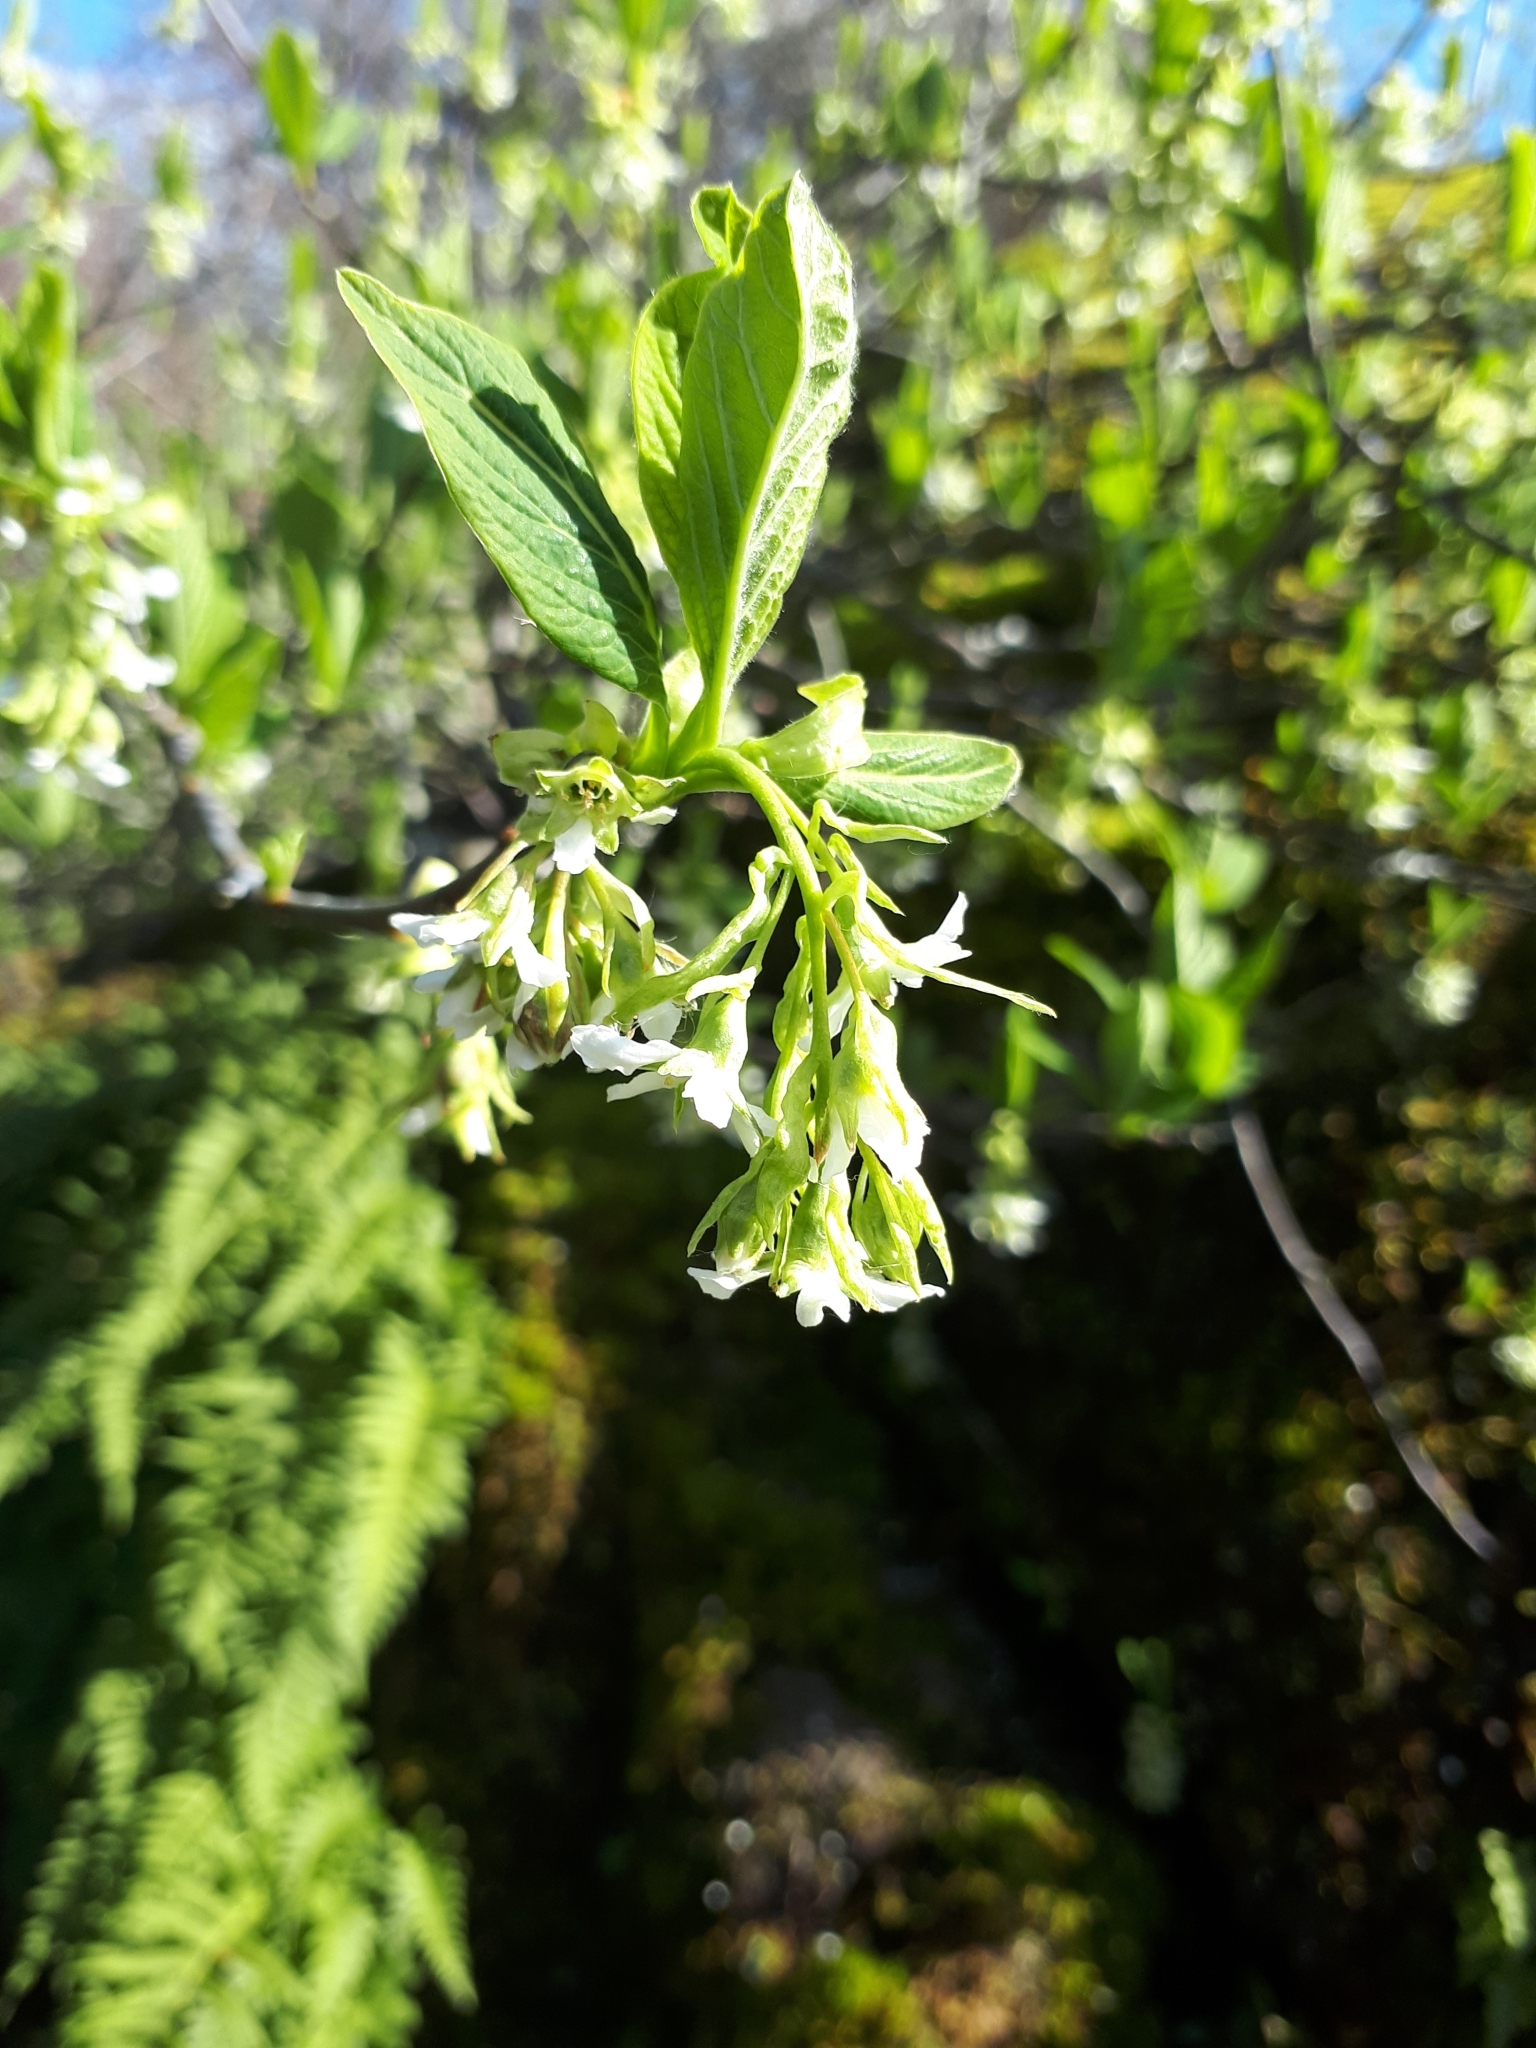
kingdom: Plantae
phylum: Tracheophyta
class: Magnoliopsida
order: Rosales
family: Rosaceae
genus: Oemleria
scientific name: Oemleria cerasiformis
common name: Osoberry
